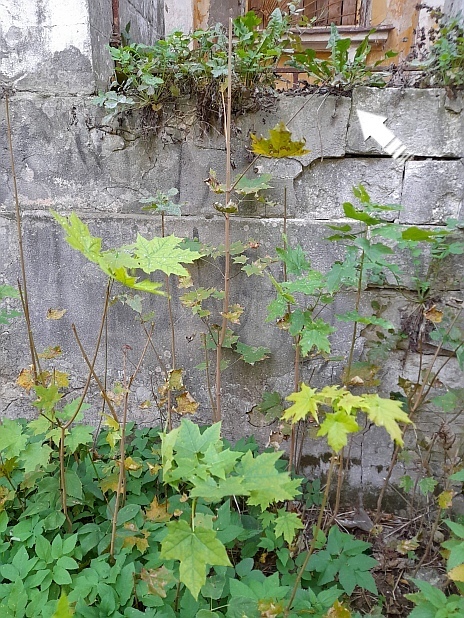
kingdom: Plantae
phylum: Tracheophyta
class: Magnoliopsida
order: Asterales
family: Asteraceae
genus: Taraxacum
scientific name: Taraxacum officinale
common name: Common dandelion
